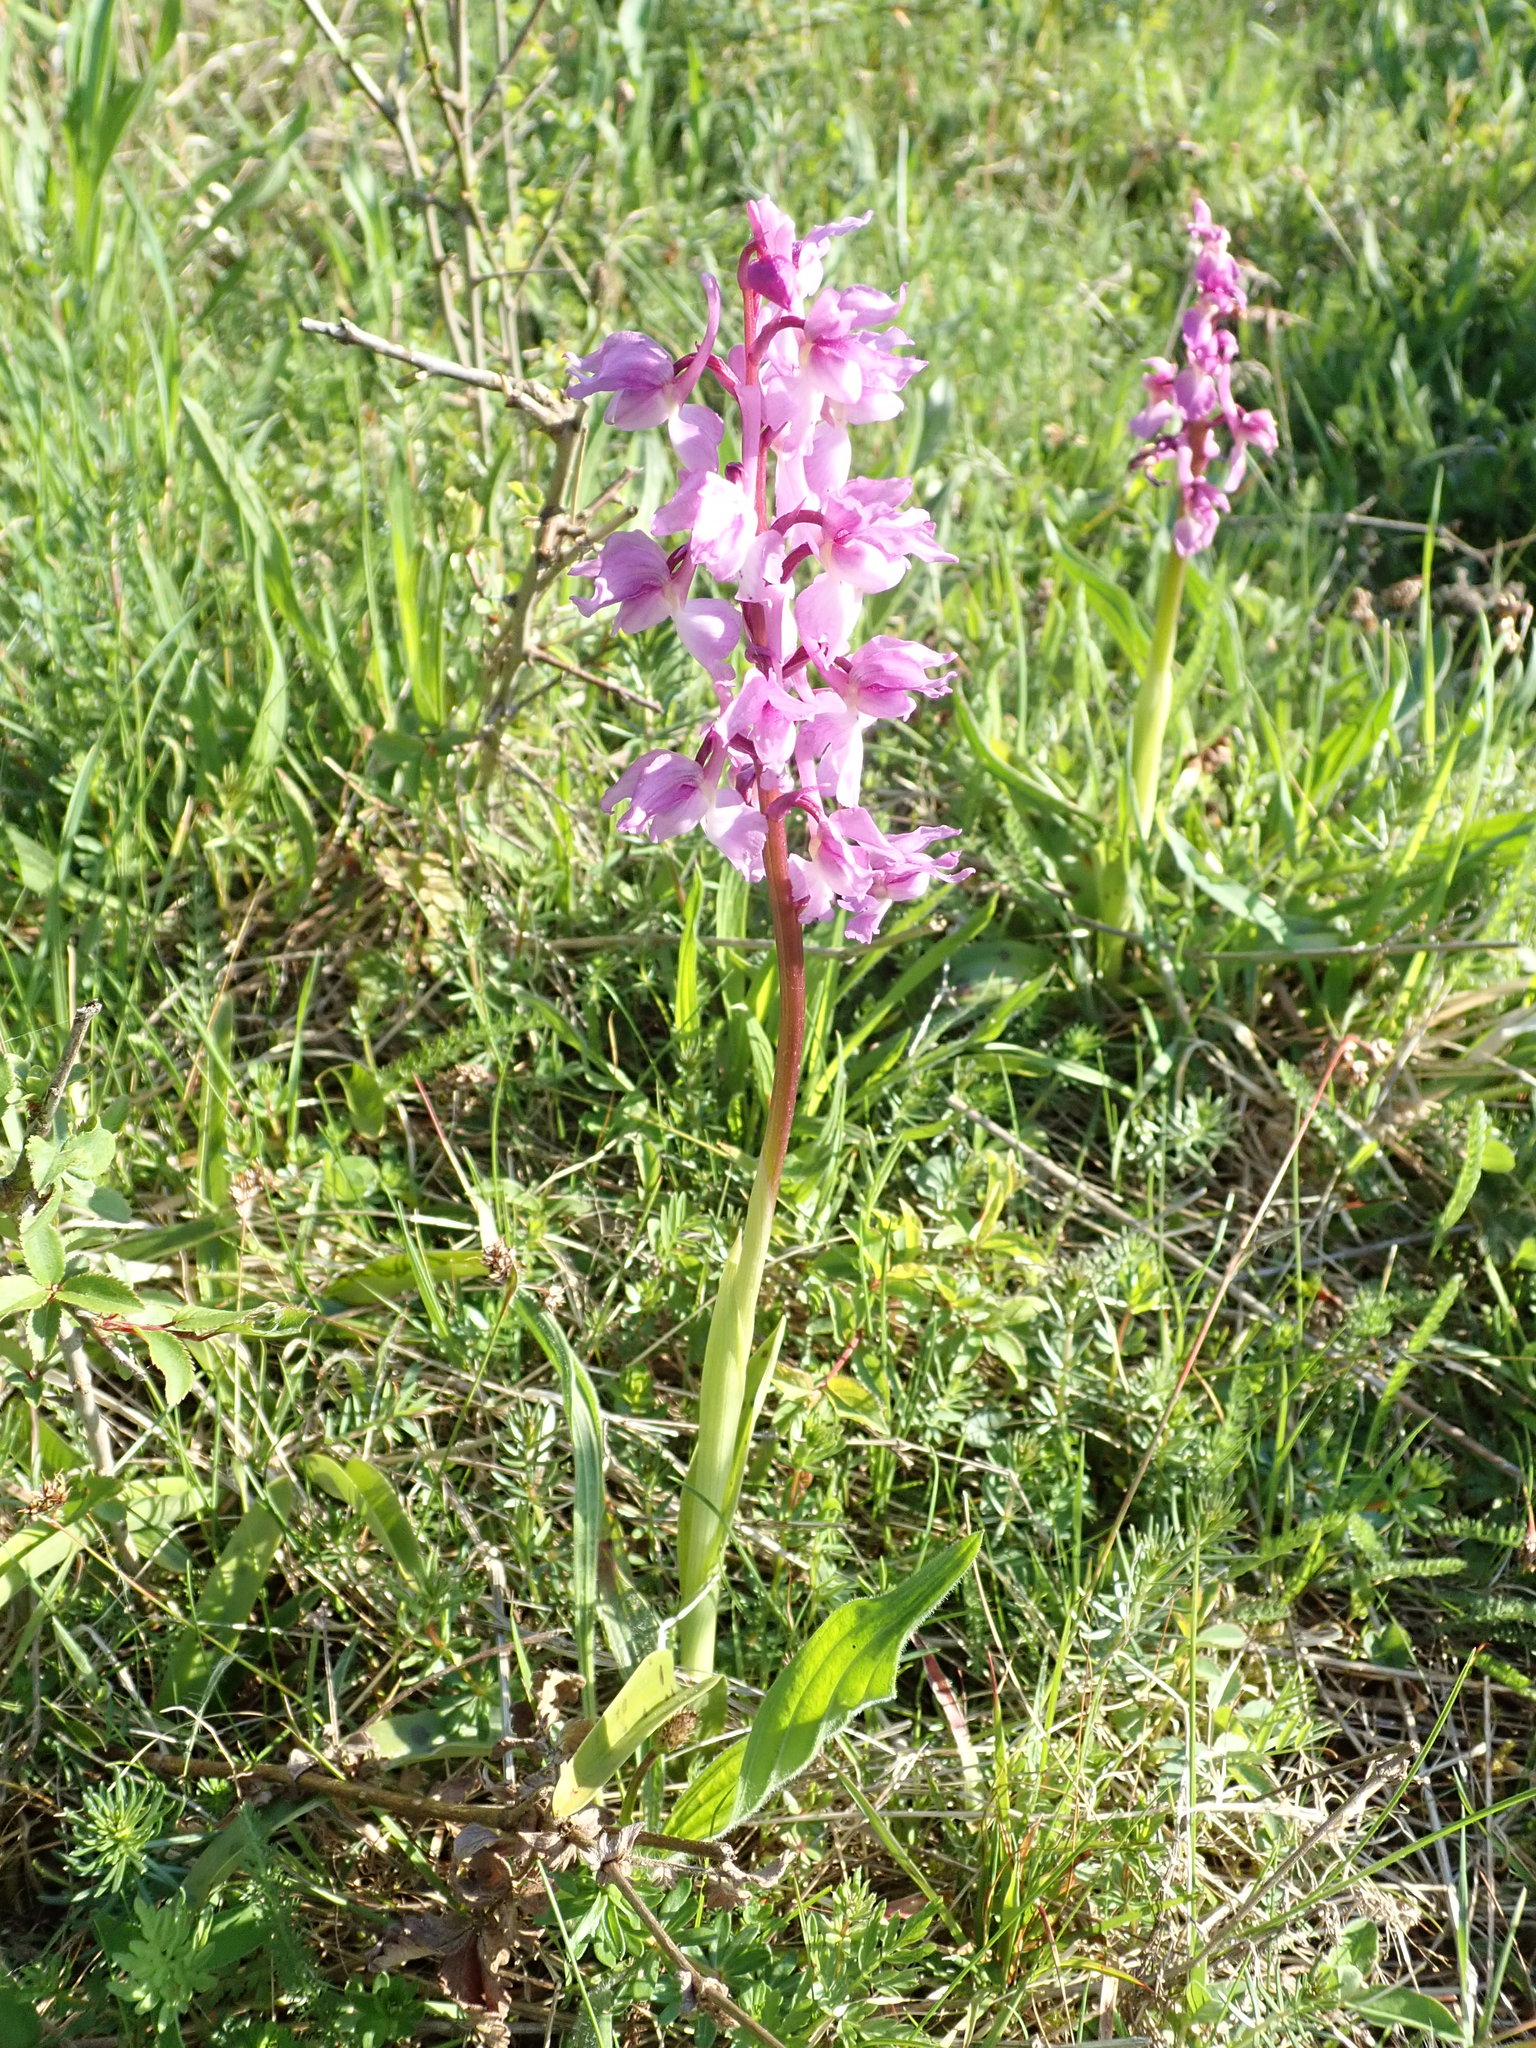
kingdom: Plantae
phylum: Tracheophyta
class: Liliopsida
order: Asparagales
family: Orchidaceae
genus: Orchis
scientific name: Orchis mascula
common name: Early-purple orchid
